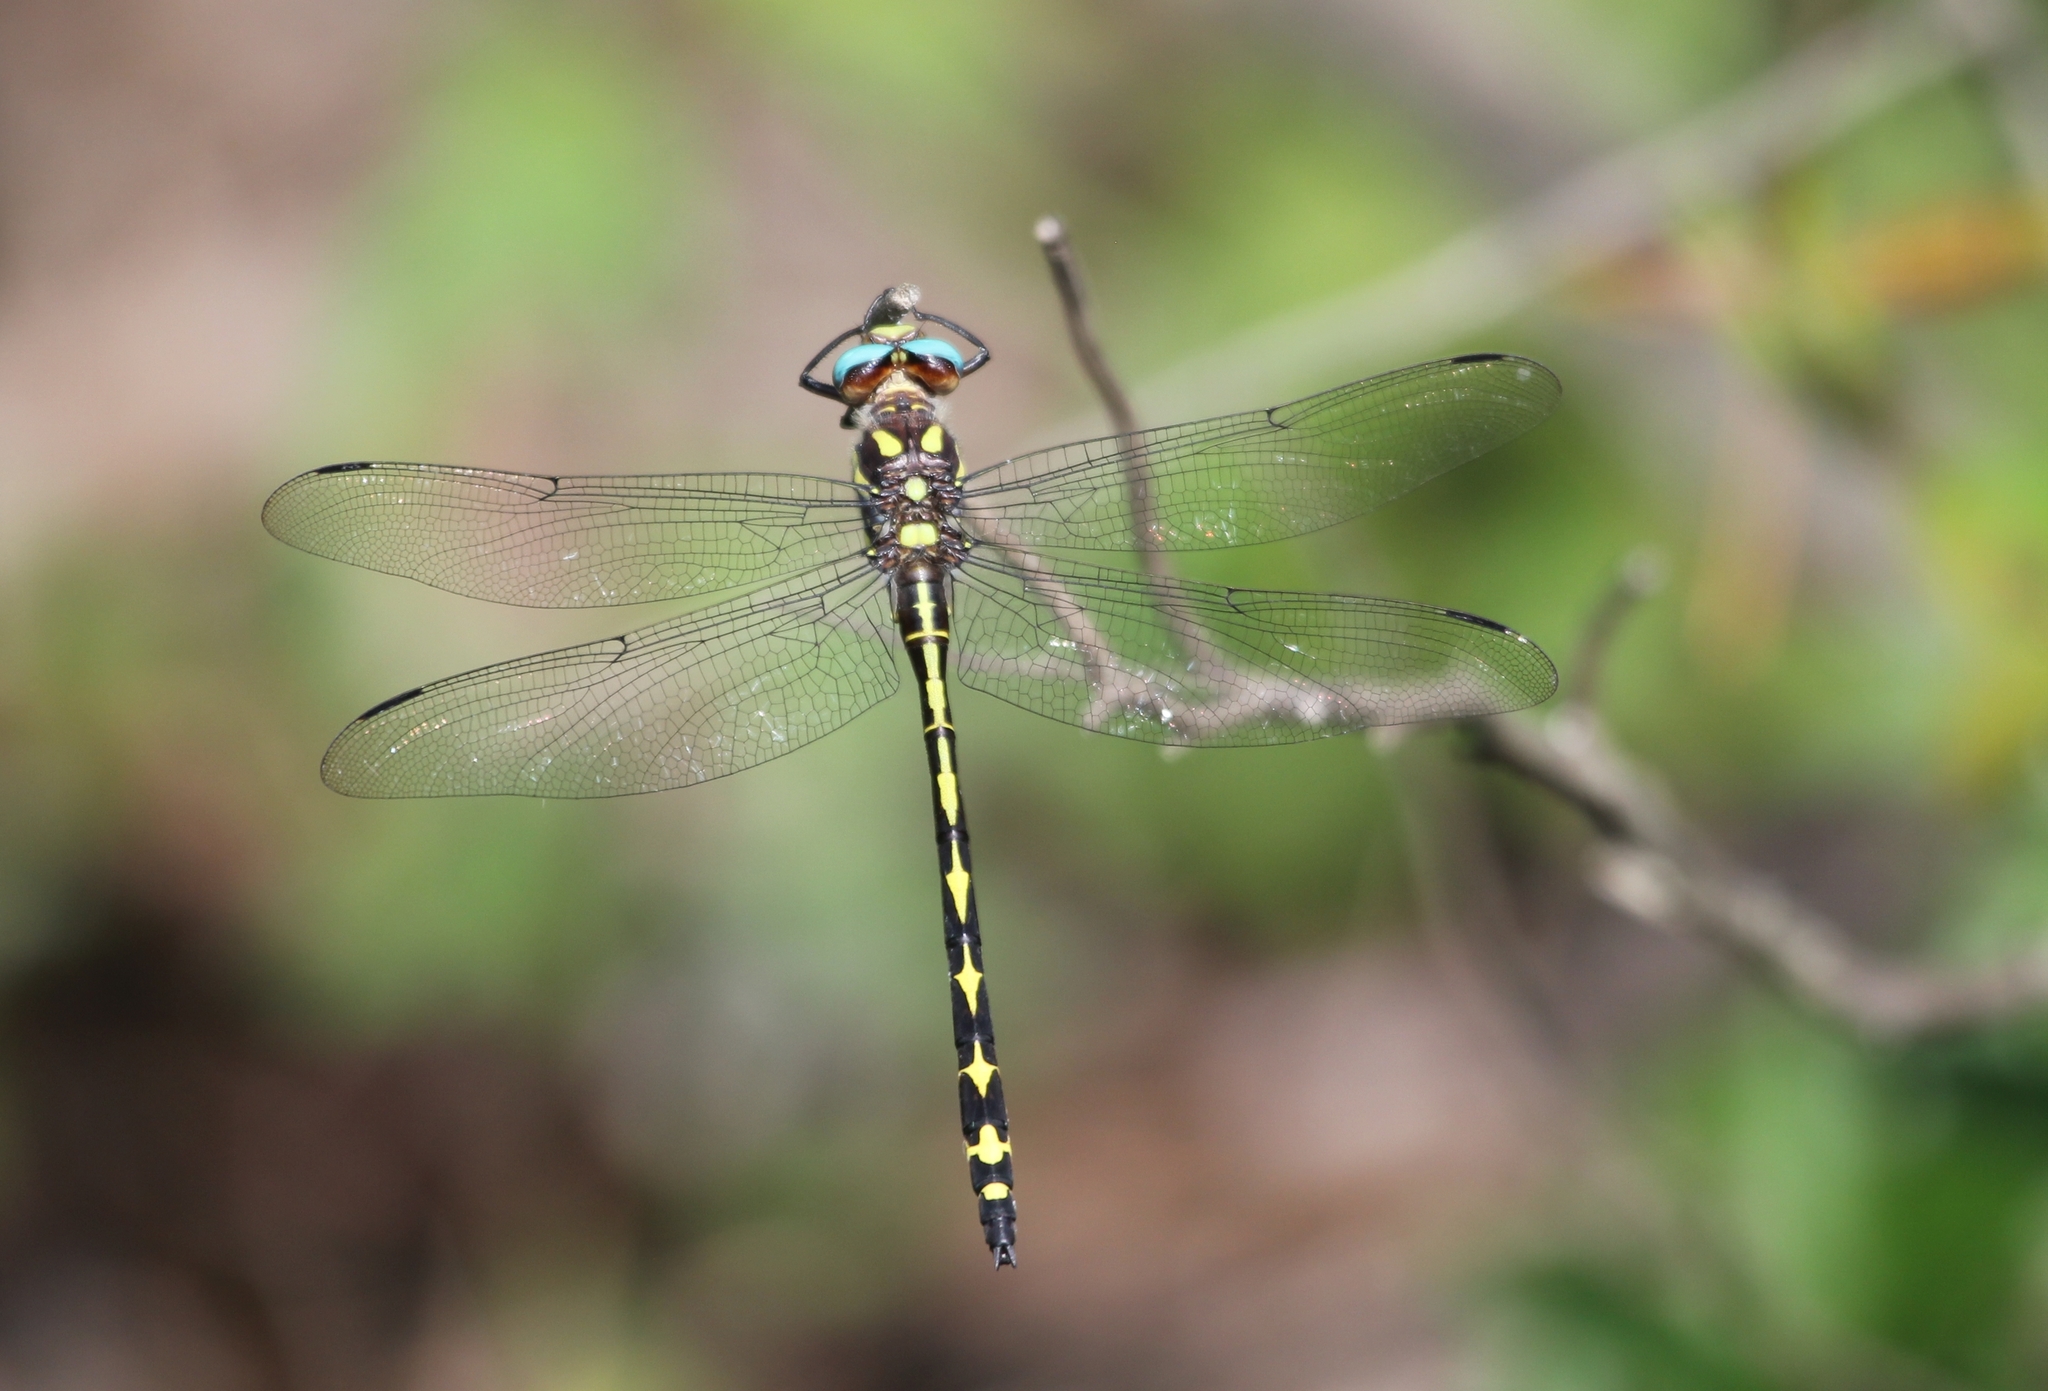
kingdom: Animalia
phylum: Arthropoda
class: Insecta
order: Odonata
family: Cordulegastridae
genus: Cordulegaster
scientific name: Cordulegaster obliqua
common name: Arrowhead spiketail
